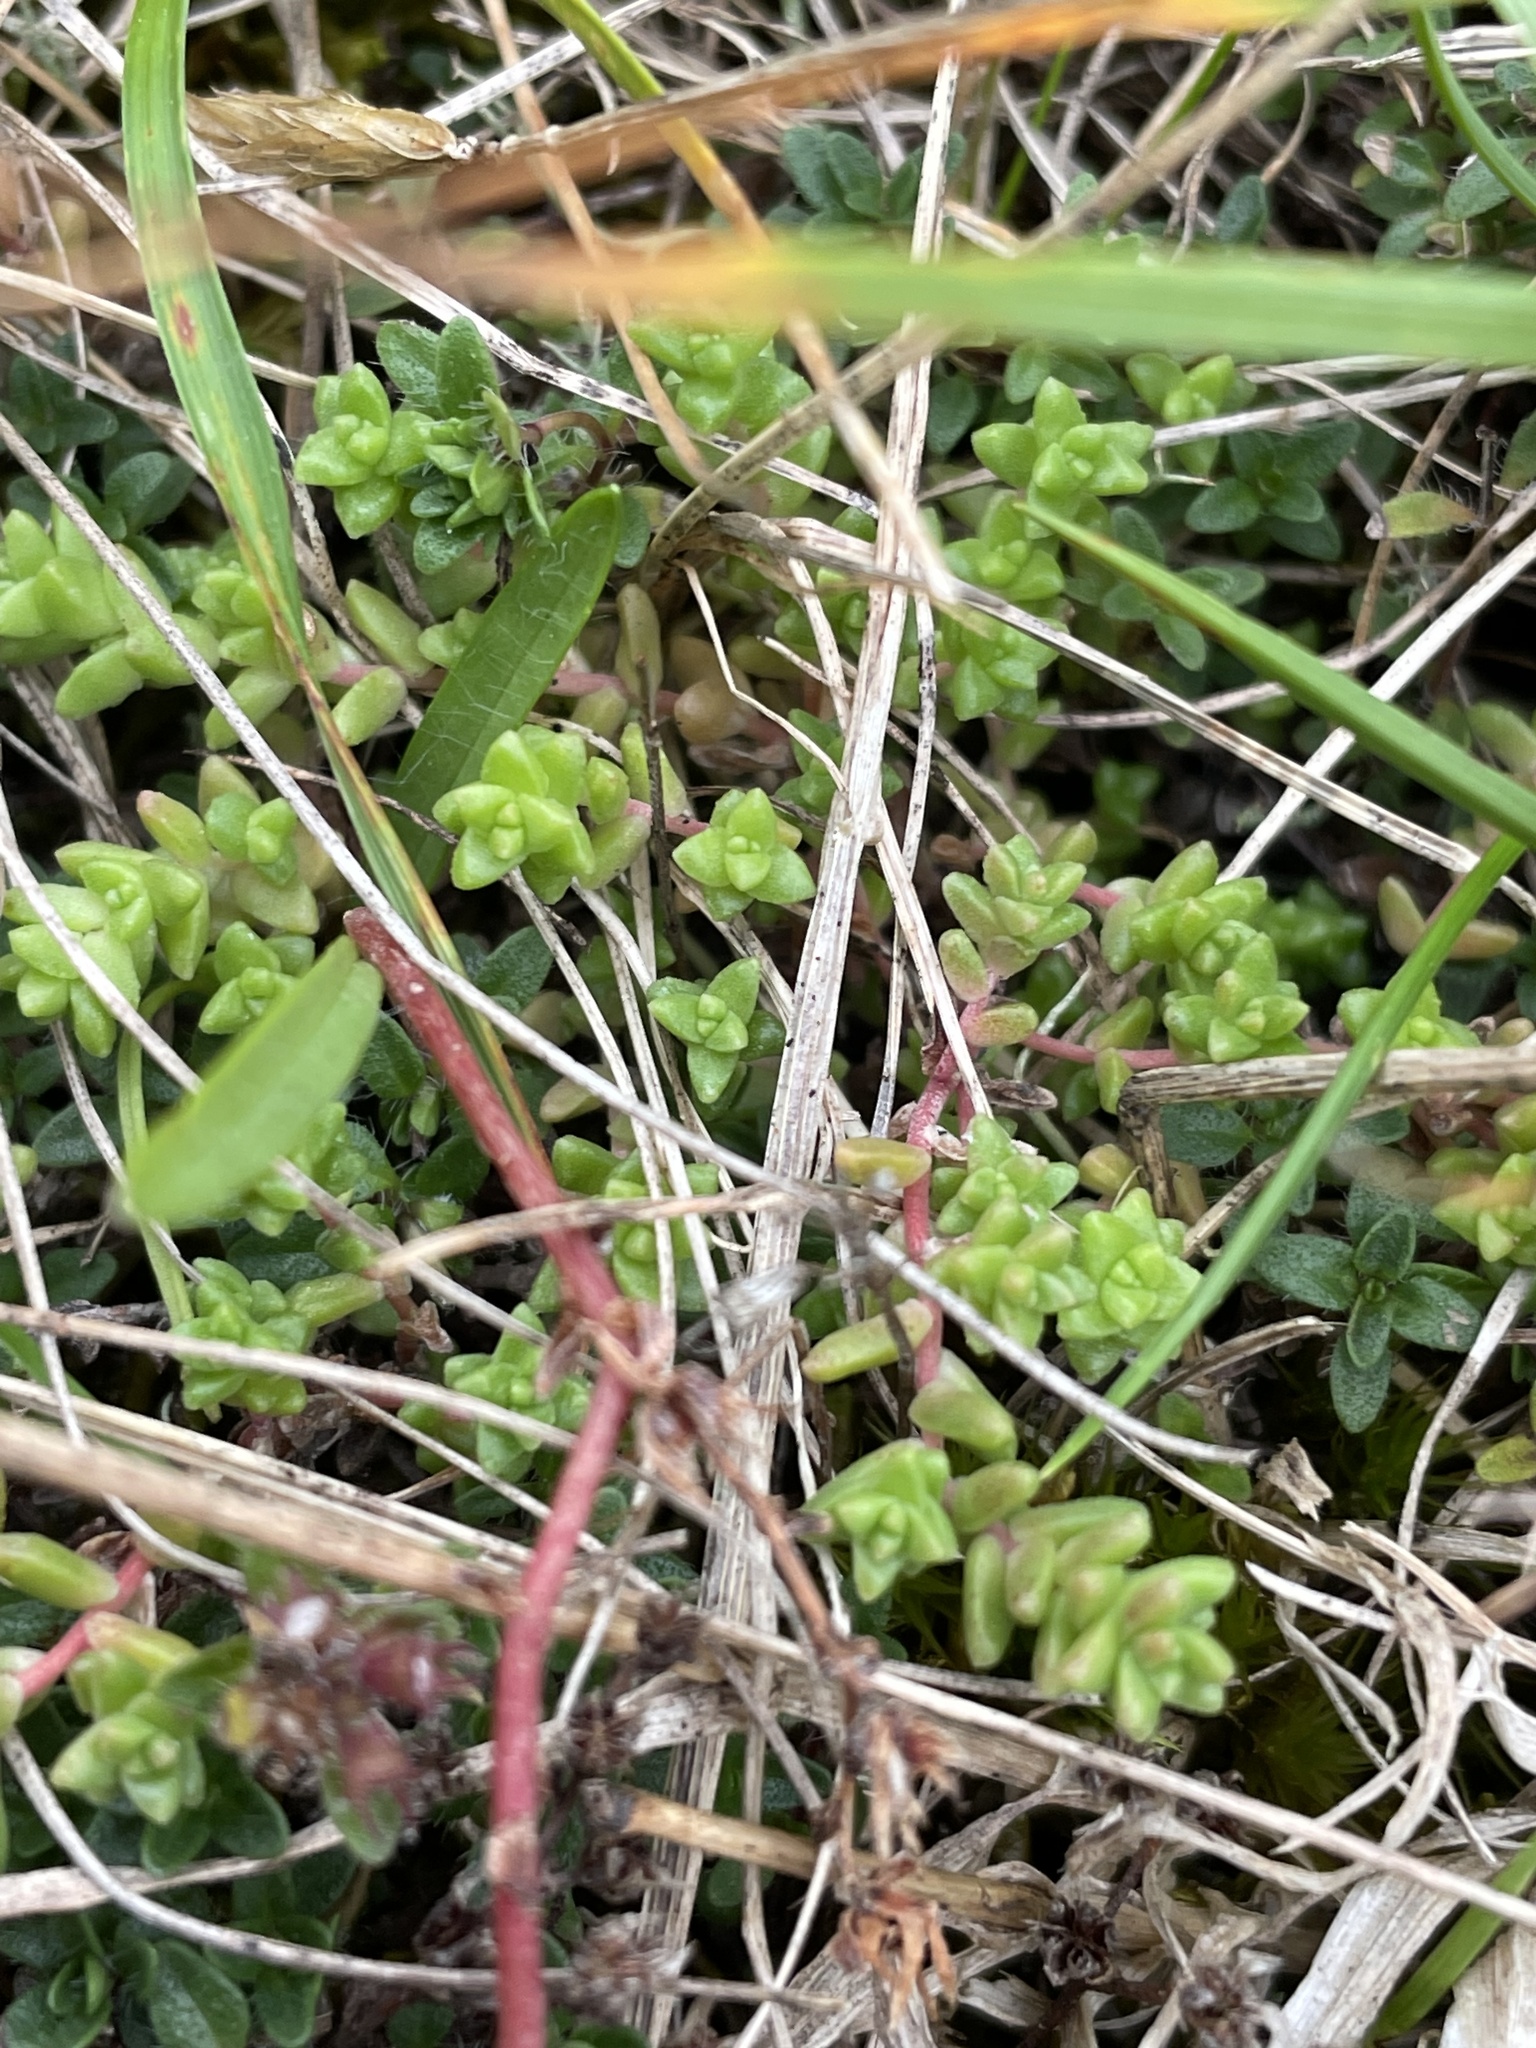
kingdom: Plantae
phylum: Tracheophyta
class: Magnoliopsida
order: Saxifragales
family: Crassulaceae
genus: Sedum
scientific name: Sedum anglicum
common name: English stonecrop
